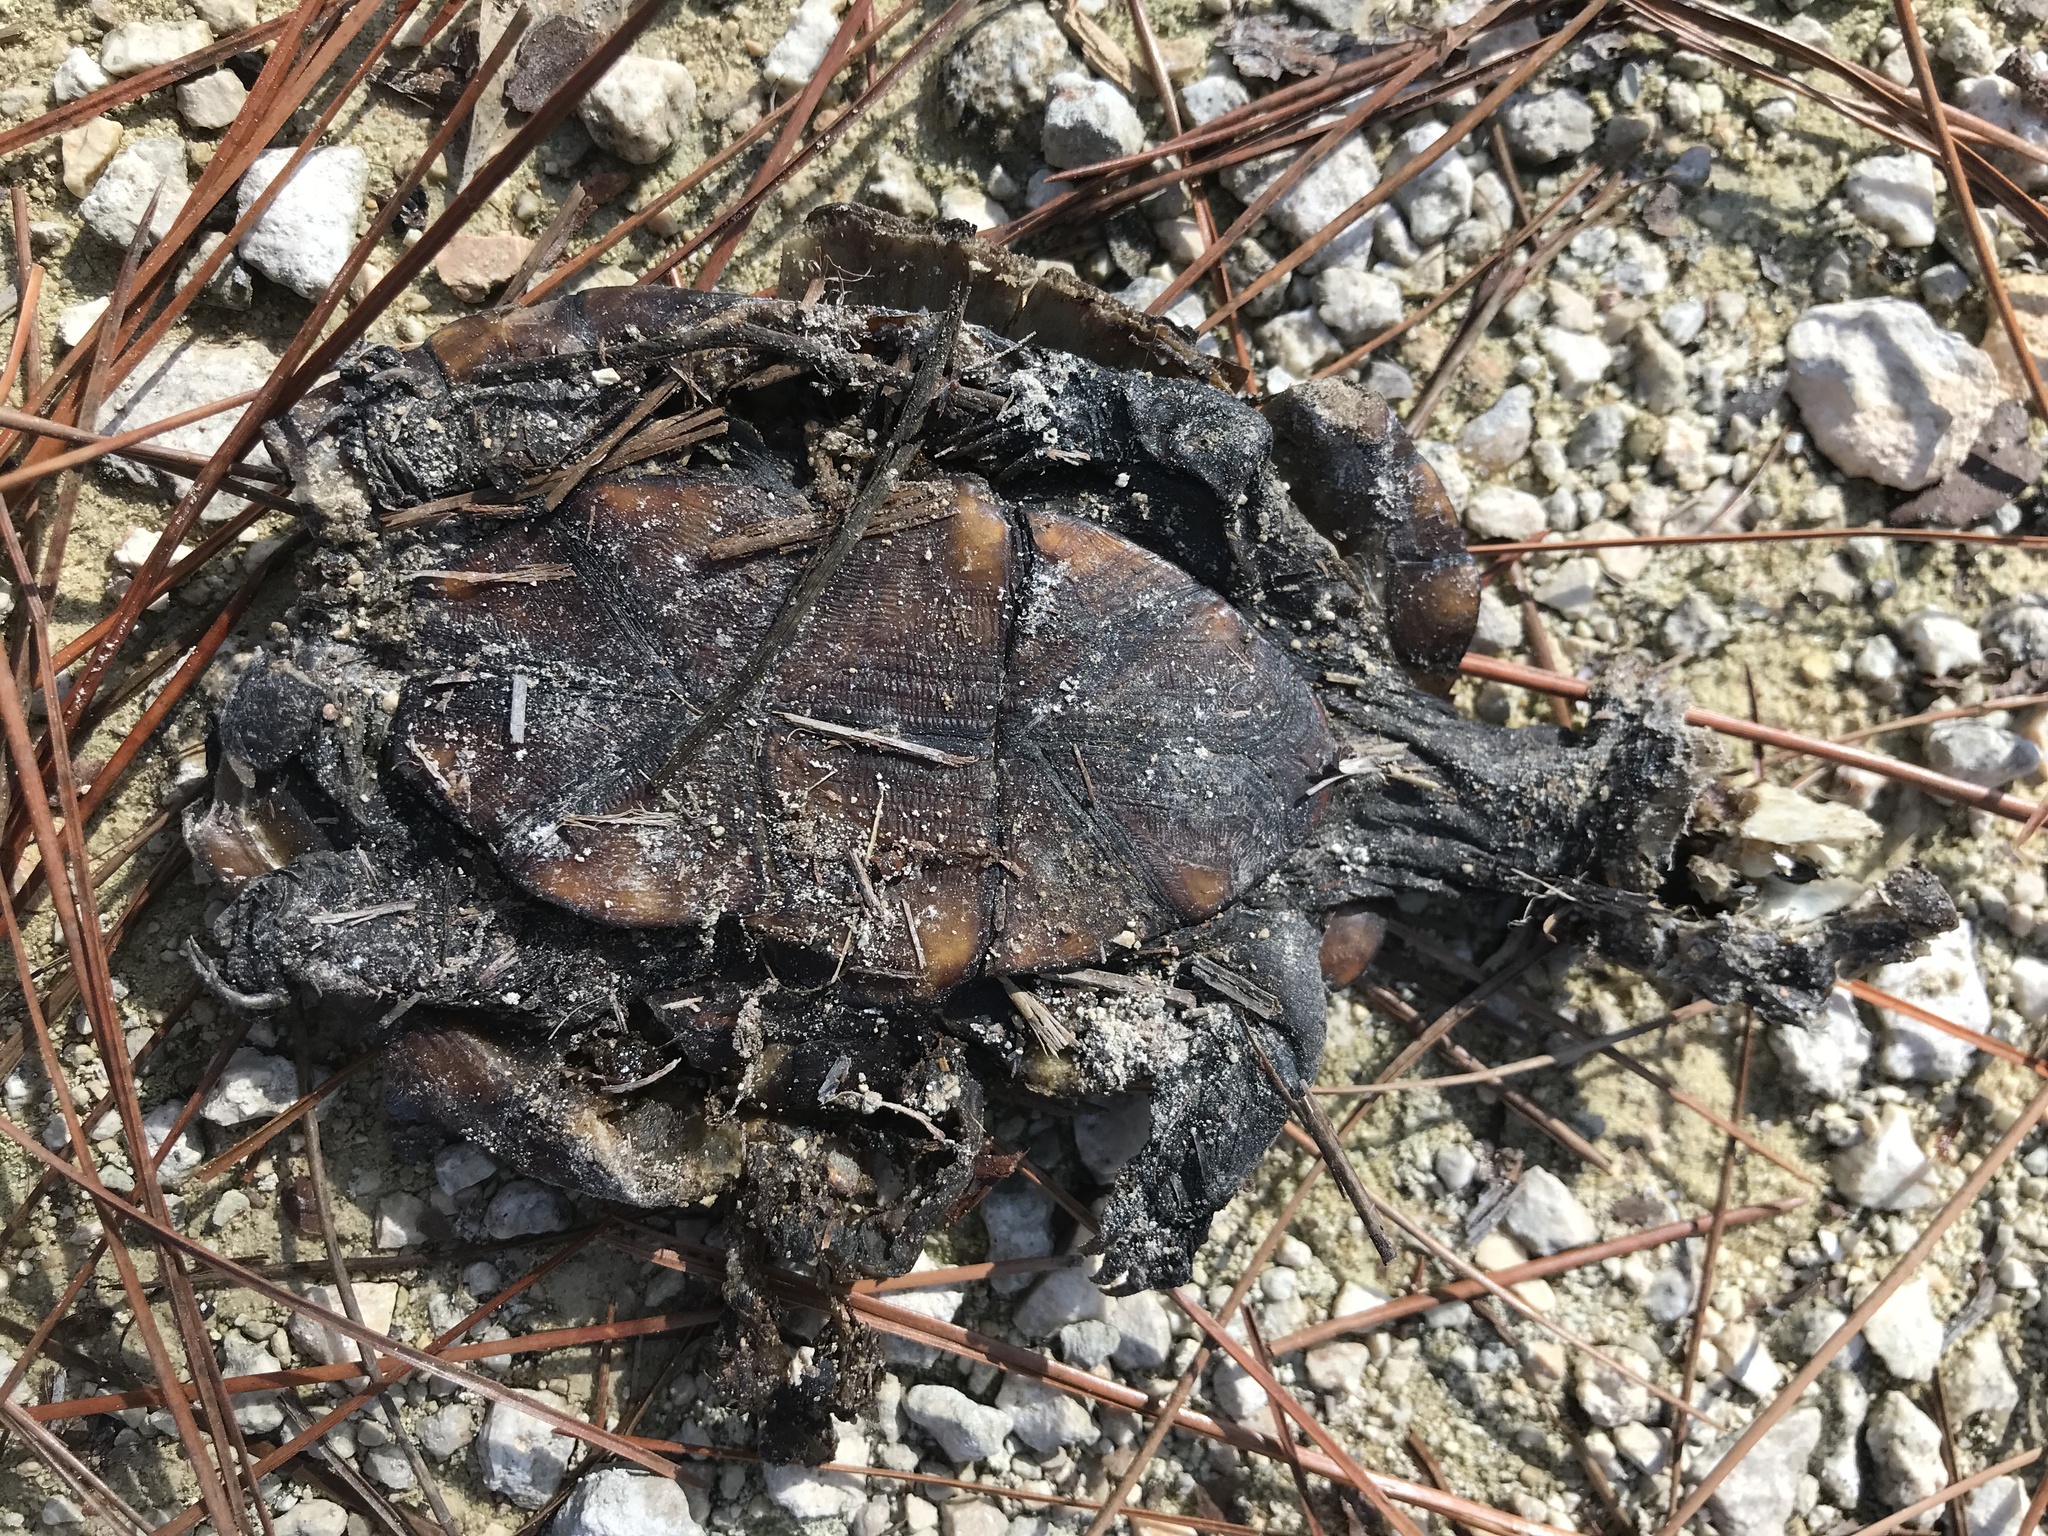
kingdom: Animalia
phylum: Chordata
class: Testudines
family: Kinosternidae
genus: Kinosternon
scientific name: Kinosternon subrubrum
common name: Eastern mud turtle
